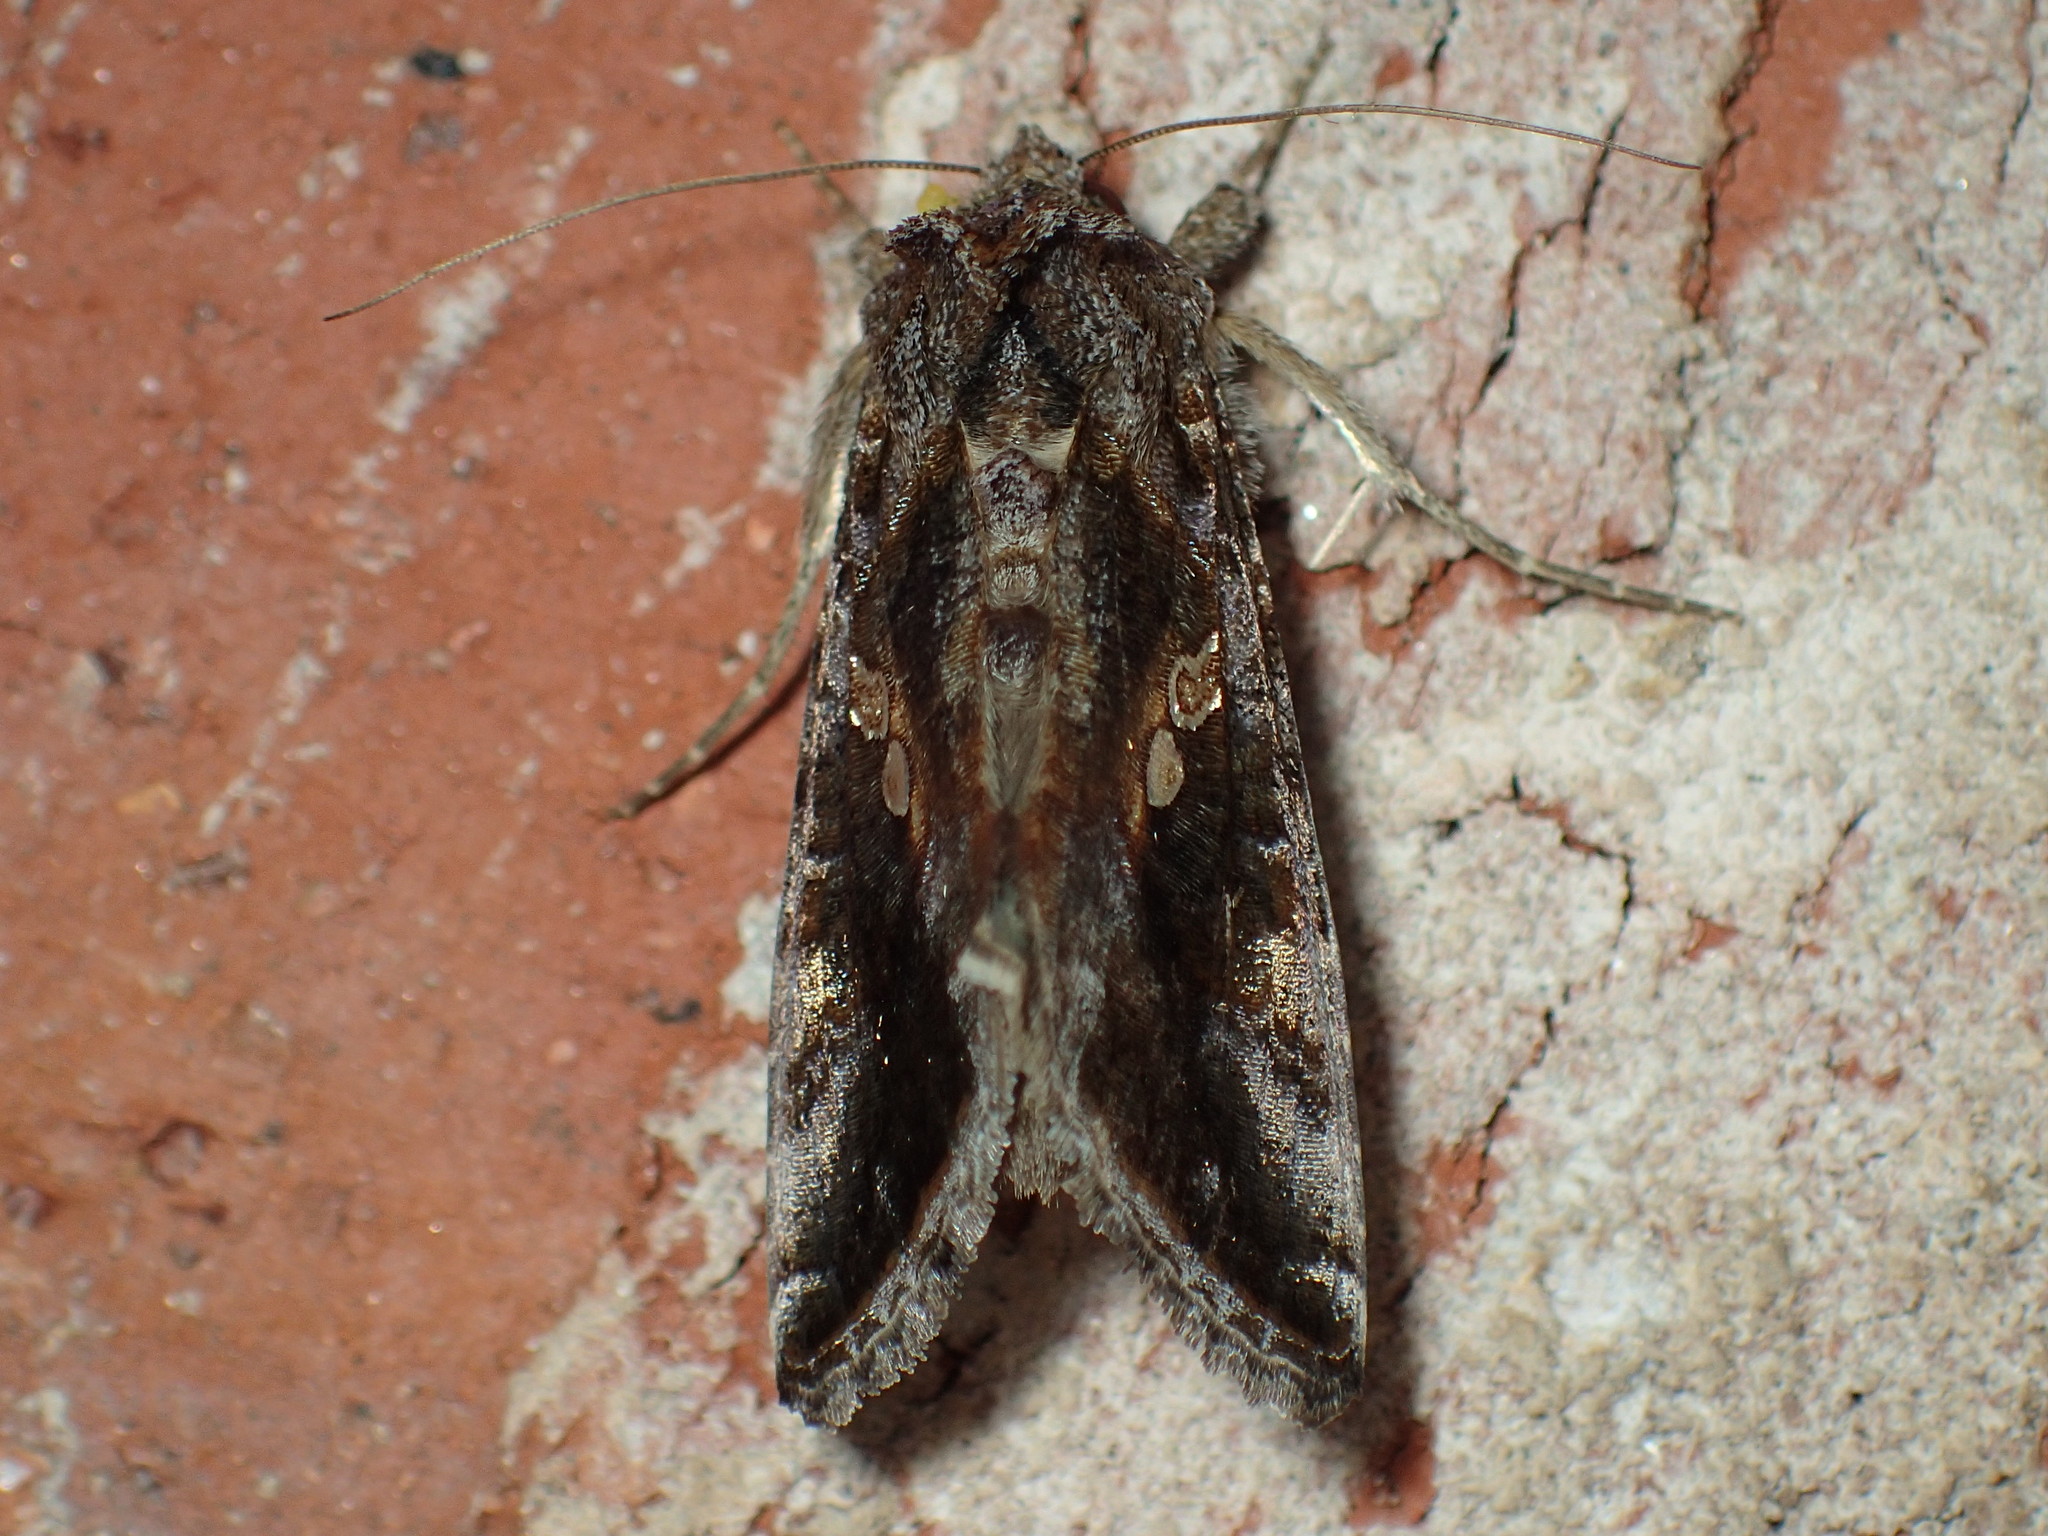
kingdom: Animalia
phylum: Arthropoda
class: Insecta
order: Lepidoptera
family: Noctuidae
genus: Chrysodeixis
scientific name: Chrysodeixis includens
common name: Cutworm moth
